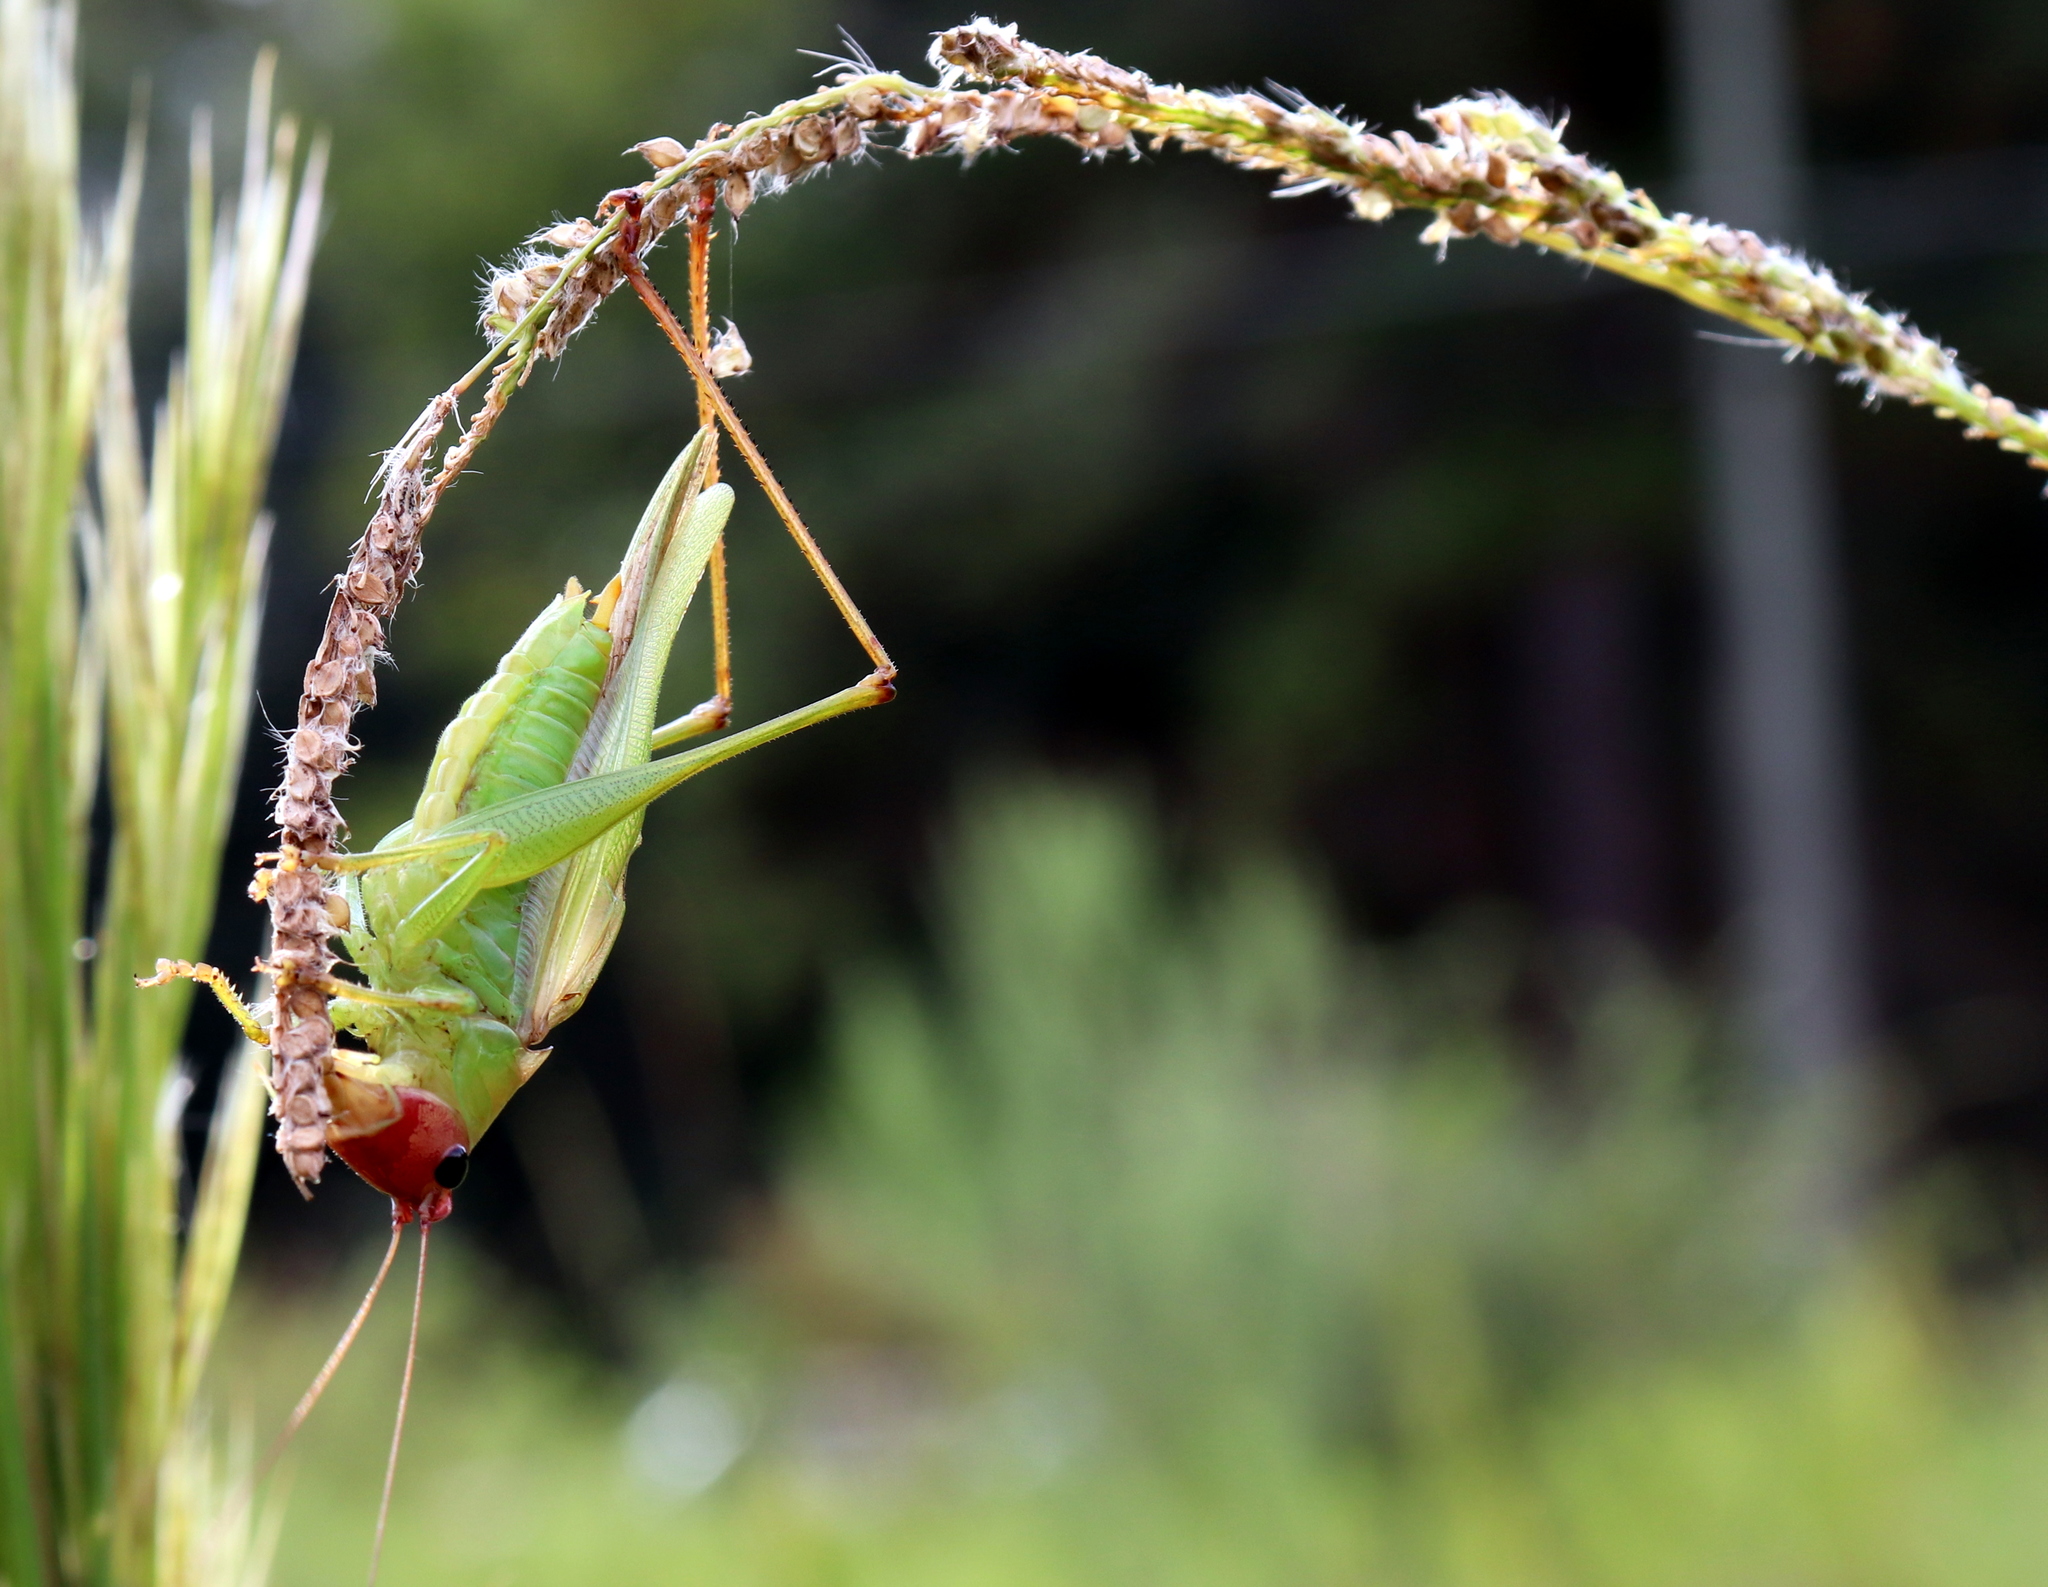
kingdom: Animalia
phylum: Arthropoda
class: Insecta
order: Orthoptera
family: Tettigoniidae
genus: Orchelimum
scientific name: Orchelimum erythrocephalum
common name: Red-headed meadow katydid
